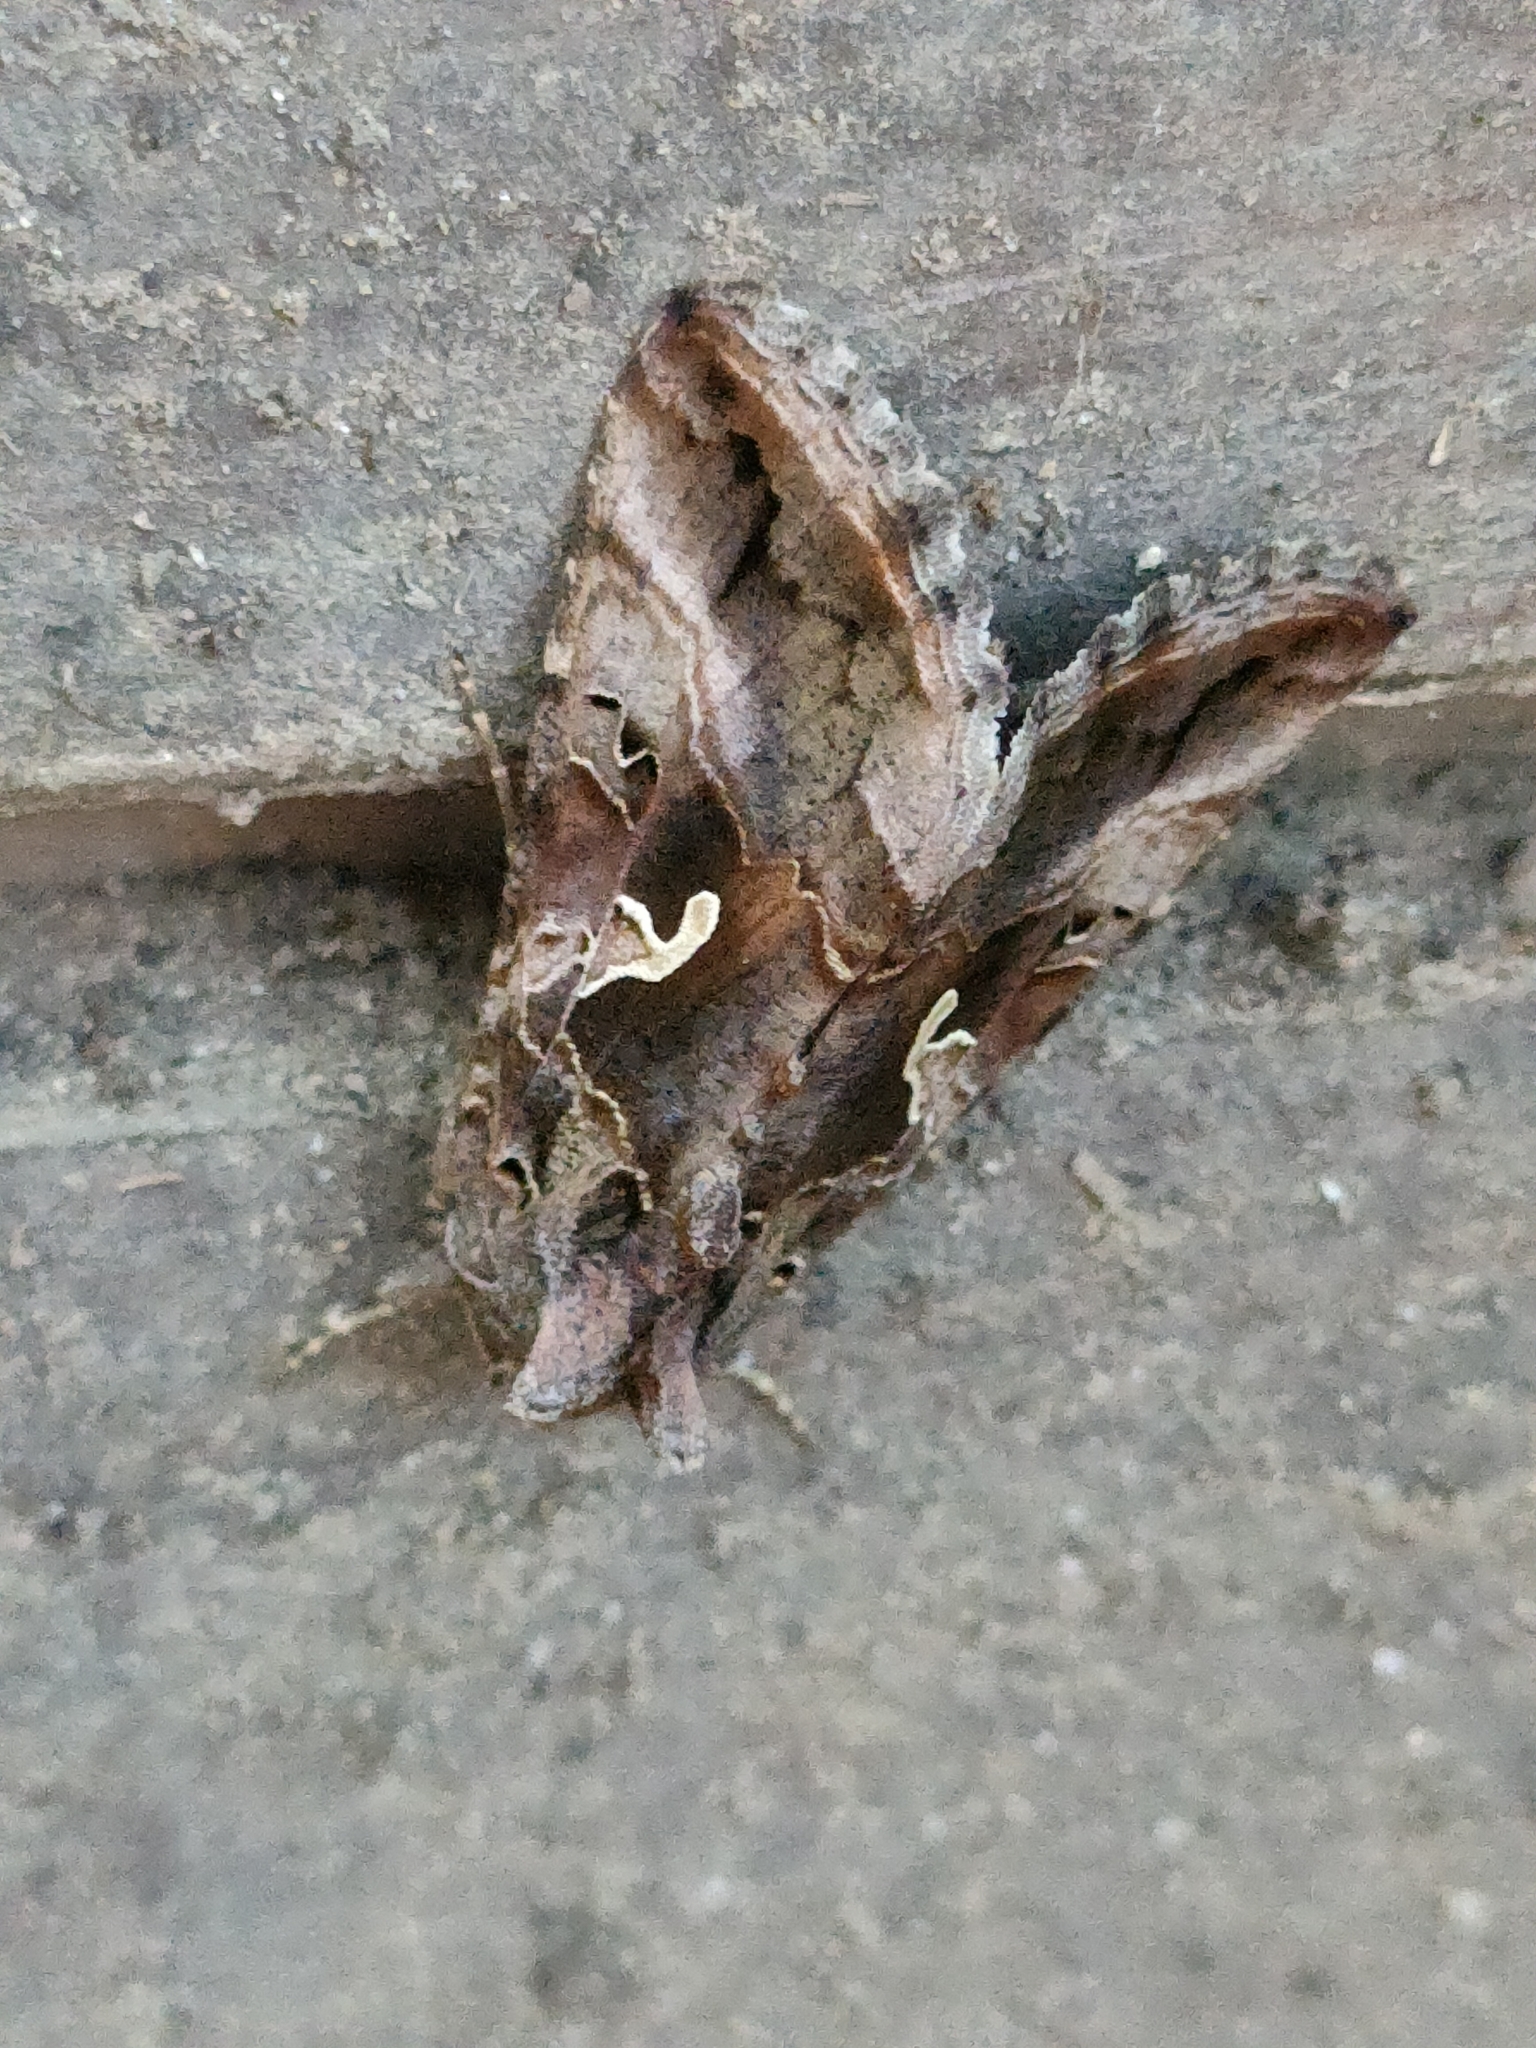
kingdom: Animalia
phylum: Arthropoda
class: Insecta
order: Lepidoptera
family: Noctuidae
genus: Autographa
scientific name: Autographa gamma
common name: Silver y
